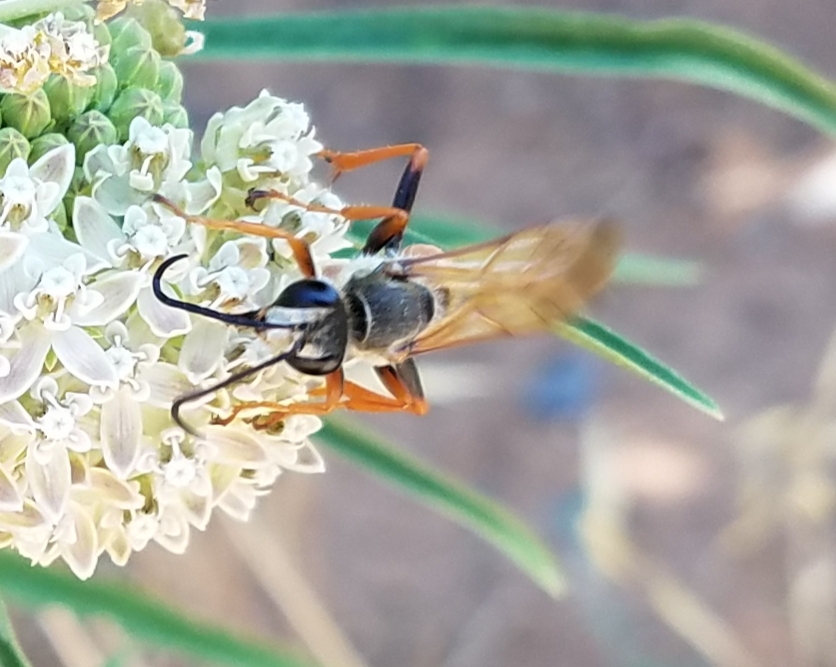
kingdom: Animalia
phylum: Arthropoda
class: Insecta
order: Hymenoptera
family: Sphecidae
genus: Sphex
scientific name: Sphex ichneumoneus
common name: Great golden digger wasp
